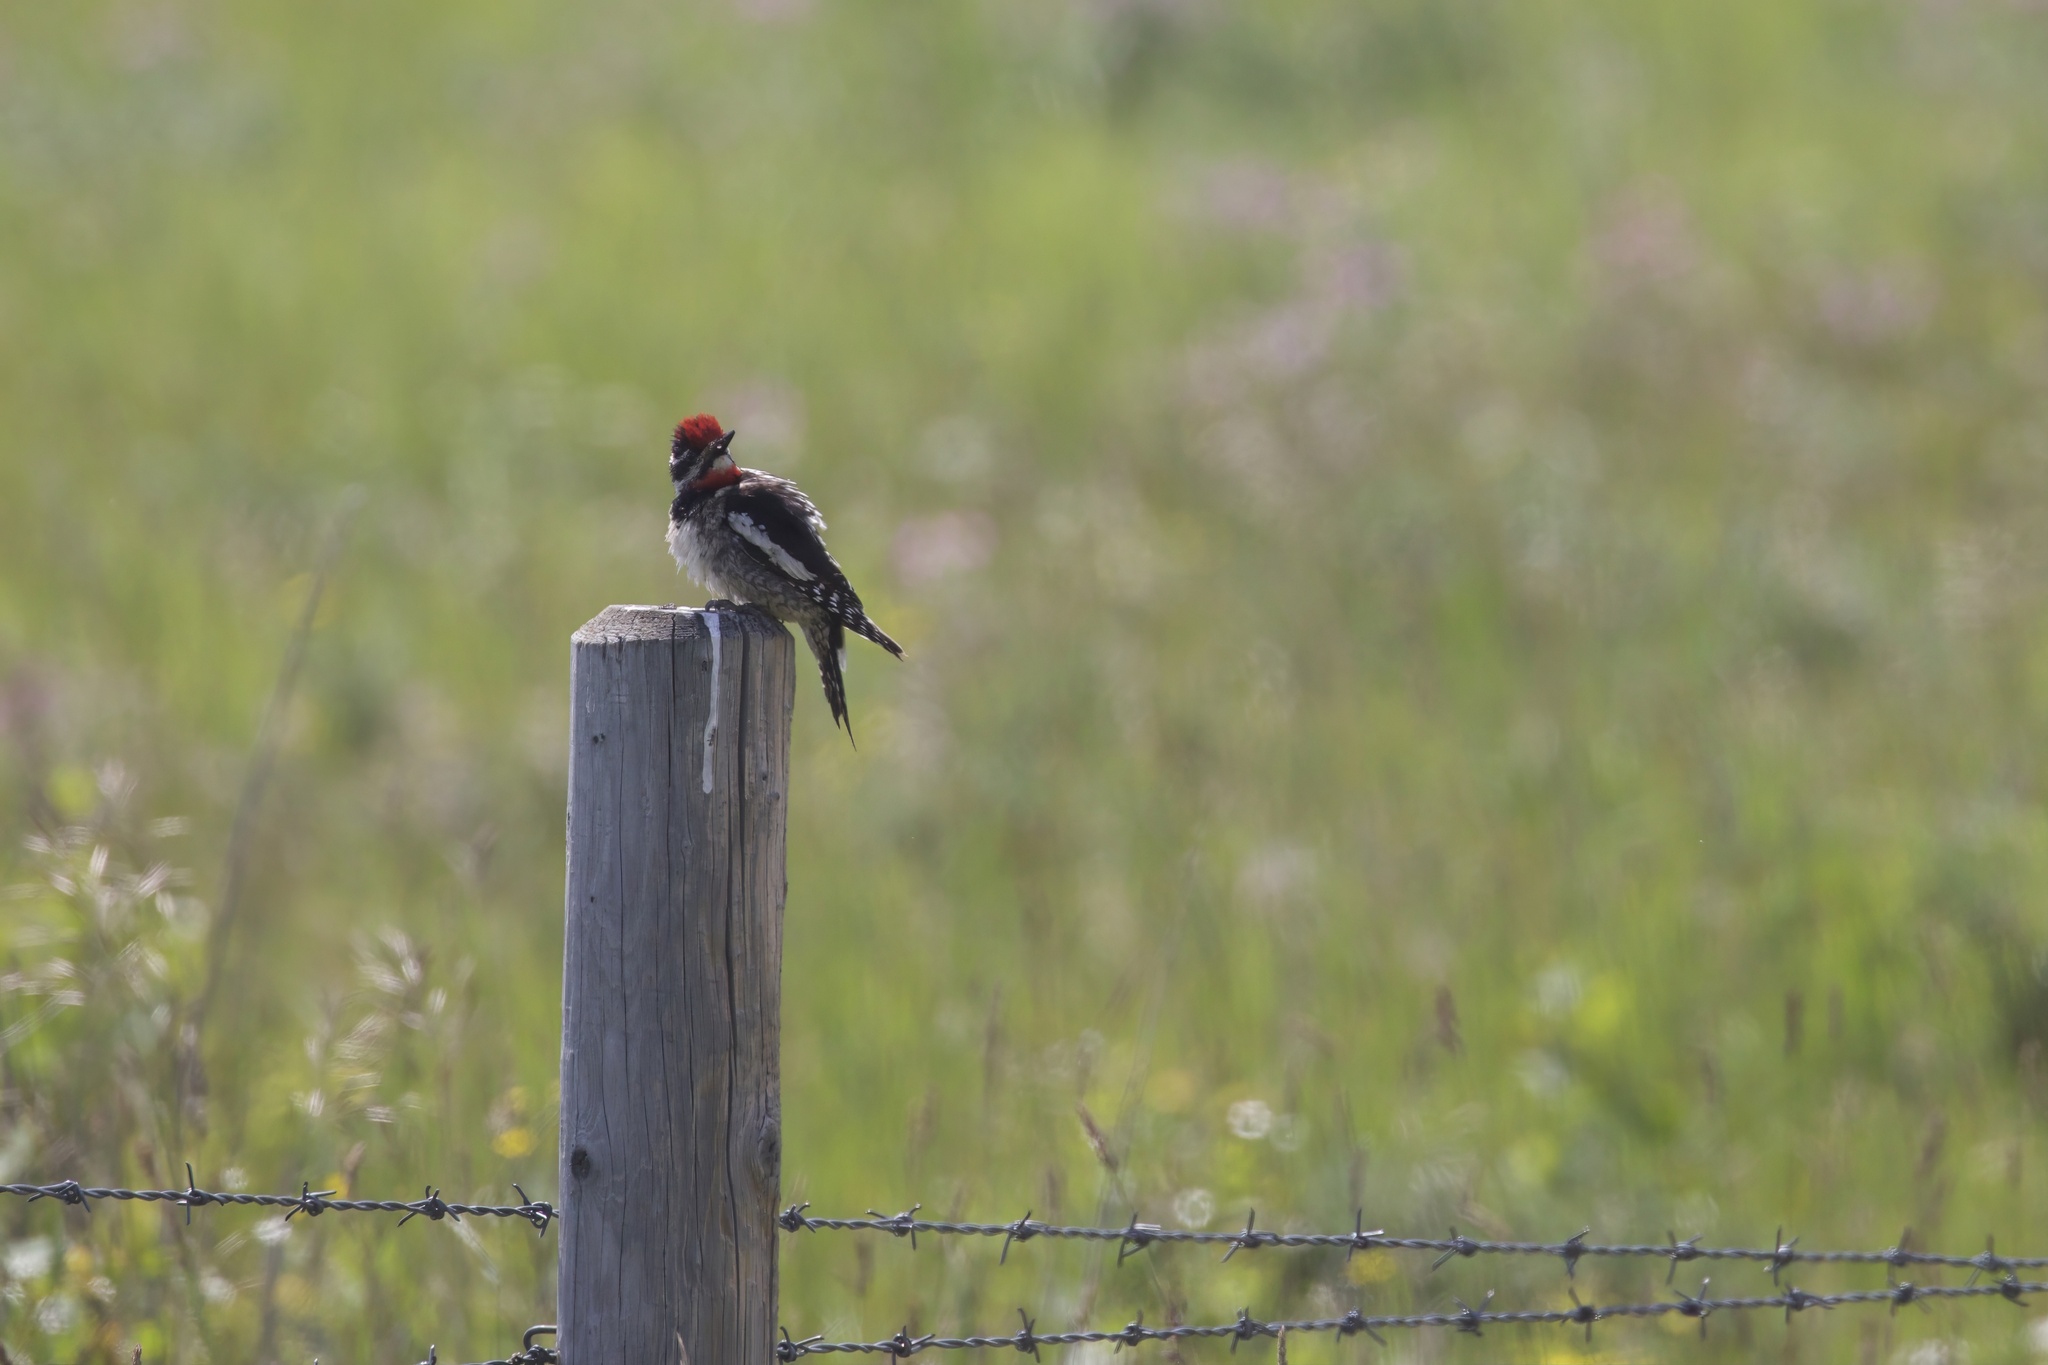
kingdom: Animalia
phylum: Chordata
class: Aves
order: Piciformes
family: Picidae
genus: Sphyrapicus
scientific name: Sphyrapicus nuchalis
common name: Red-naped sapsucker
